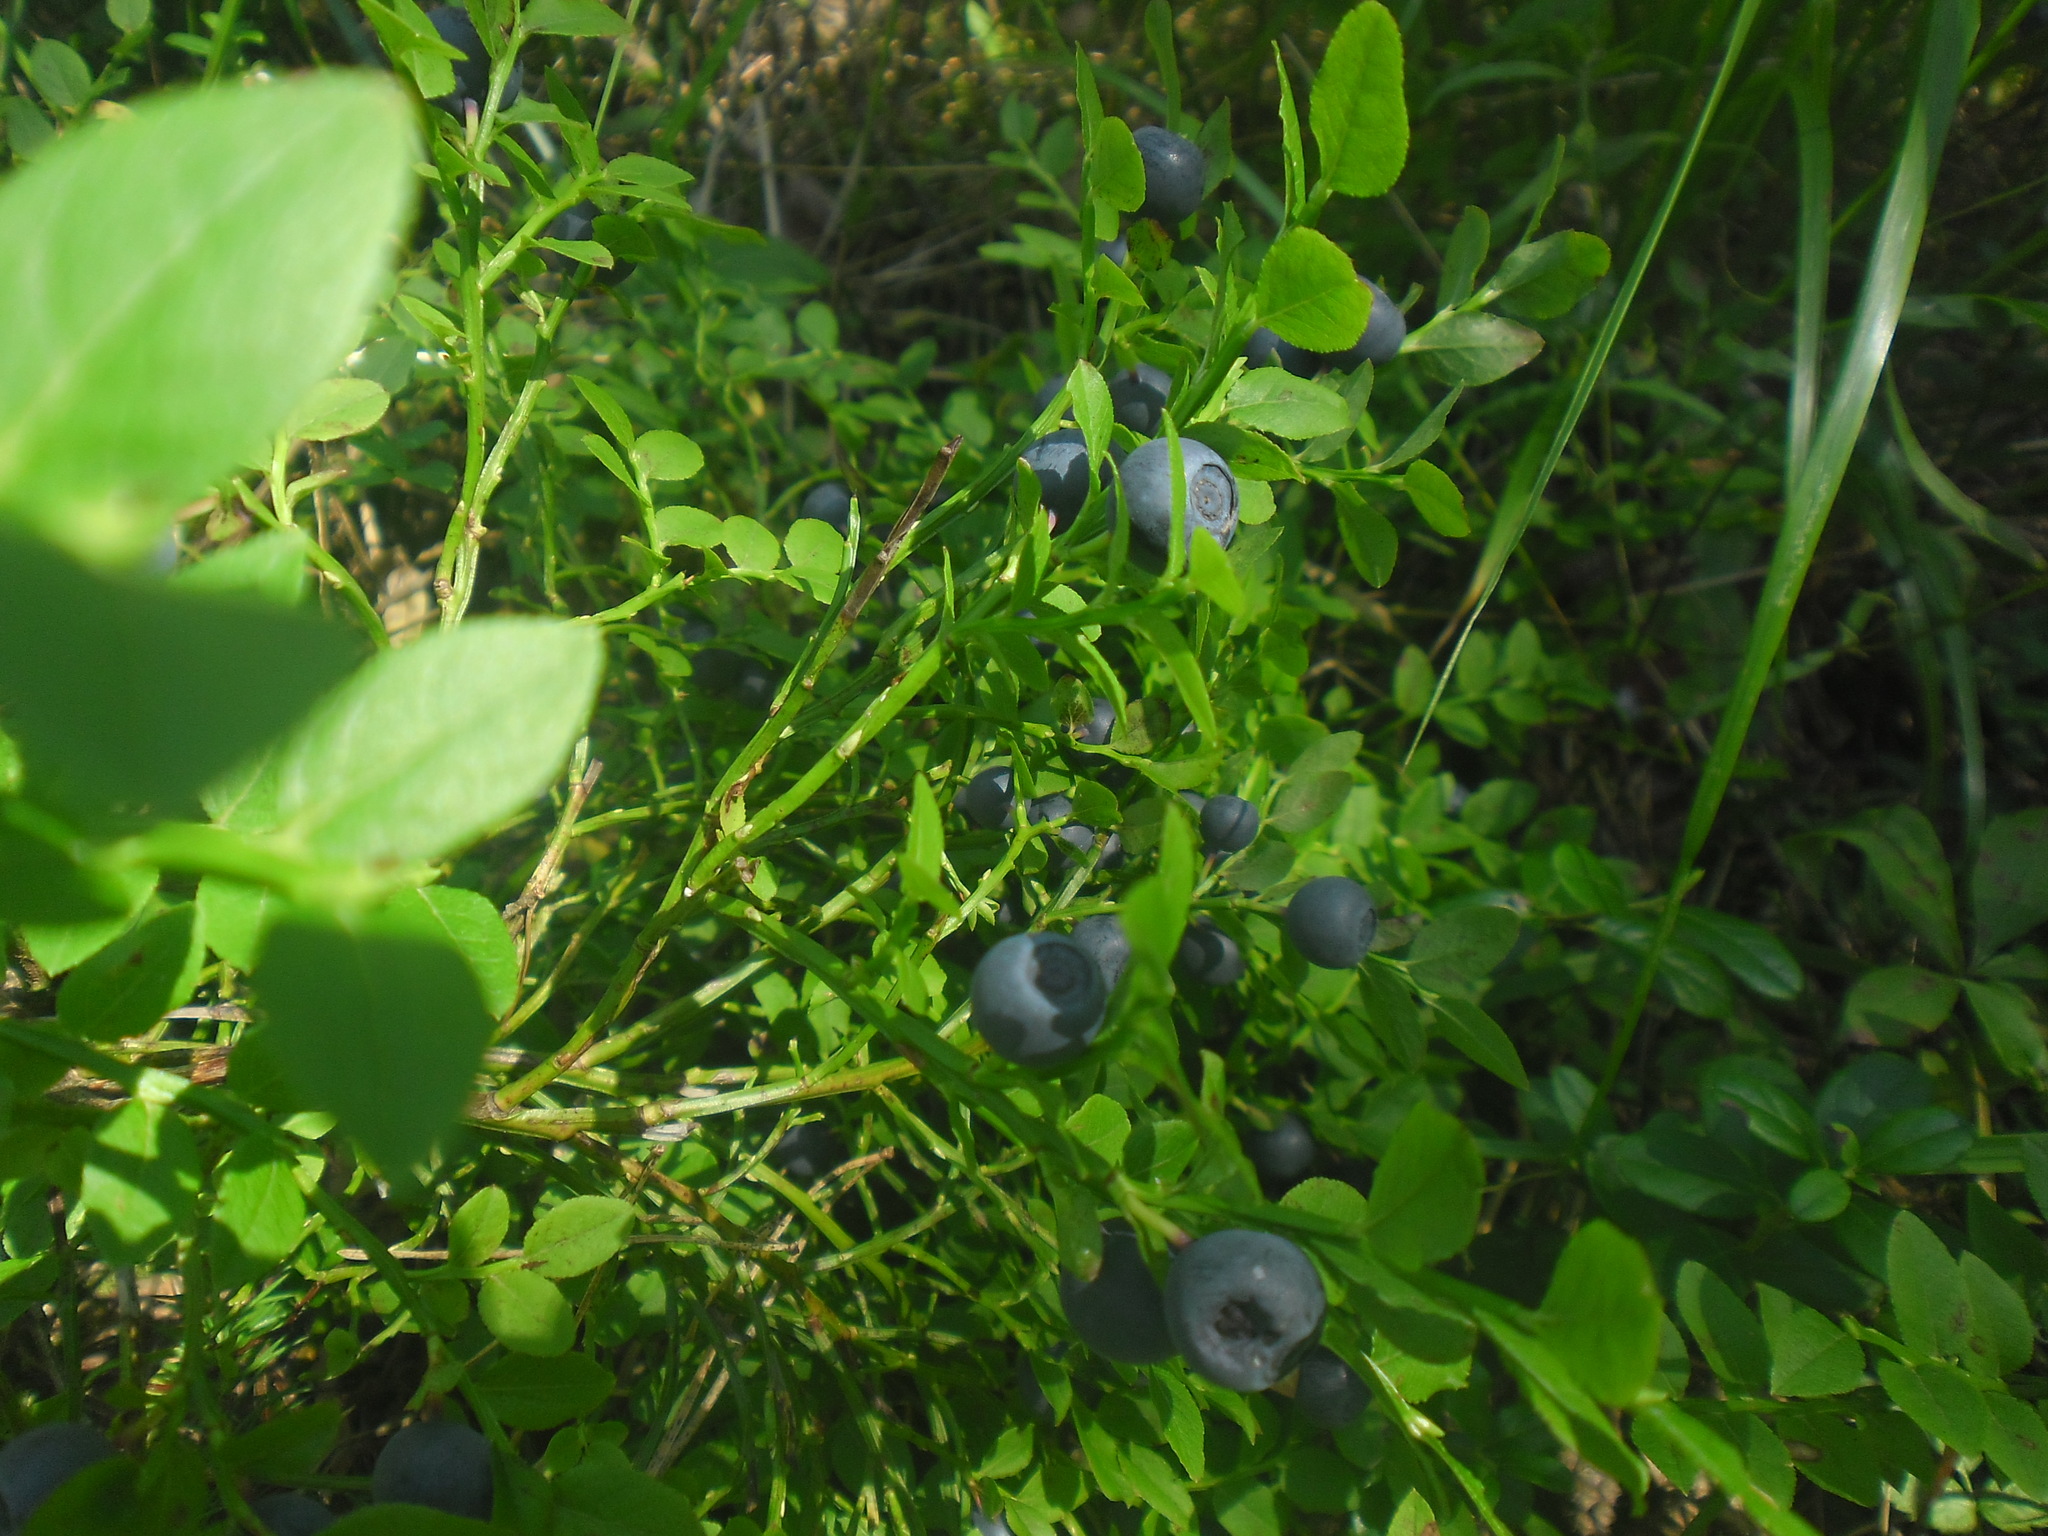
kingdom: Plantae
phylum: Tracheophyta
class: Magnoliopsida
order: Ericales
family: Ericaceae
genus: Vaccinium
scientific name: Vaccinium myrtillus
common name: Bilberry
